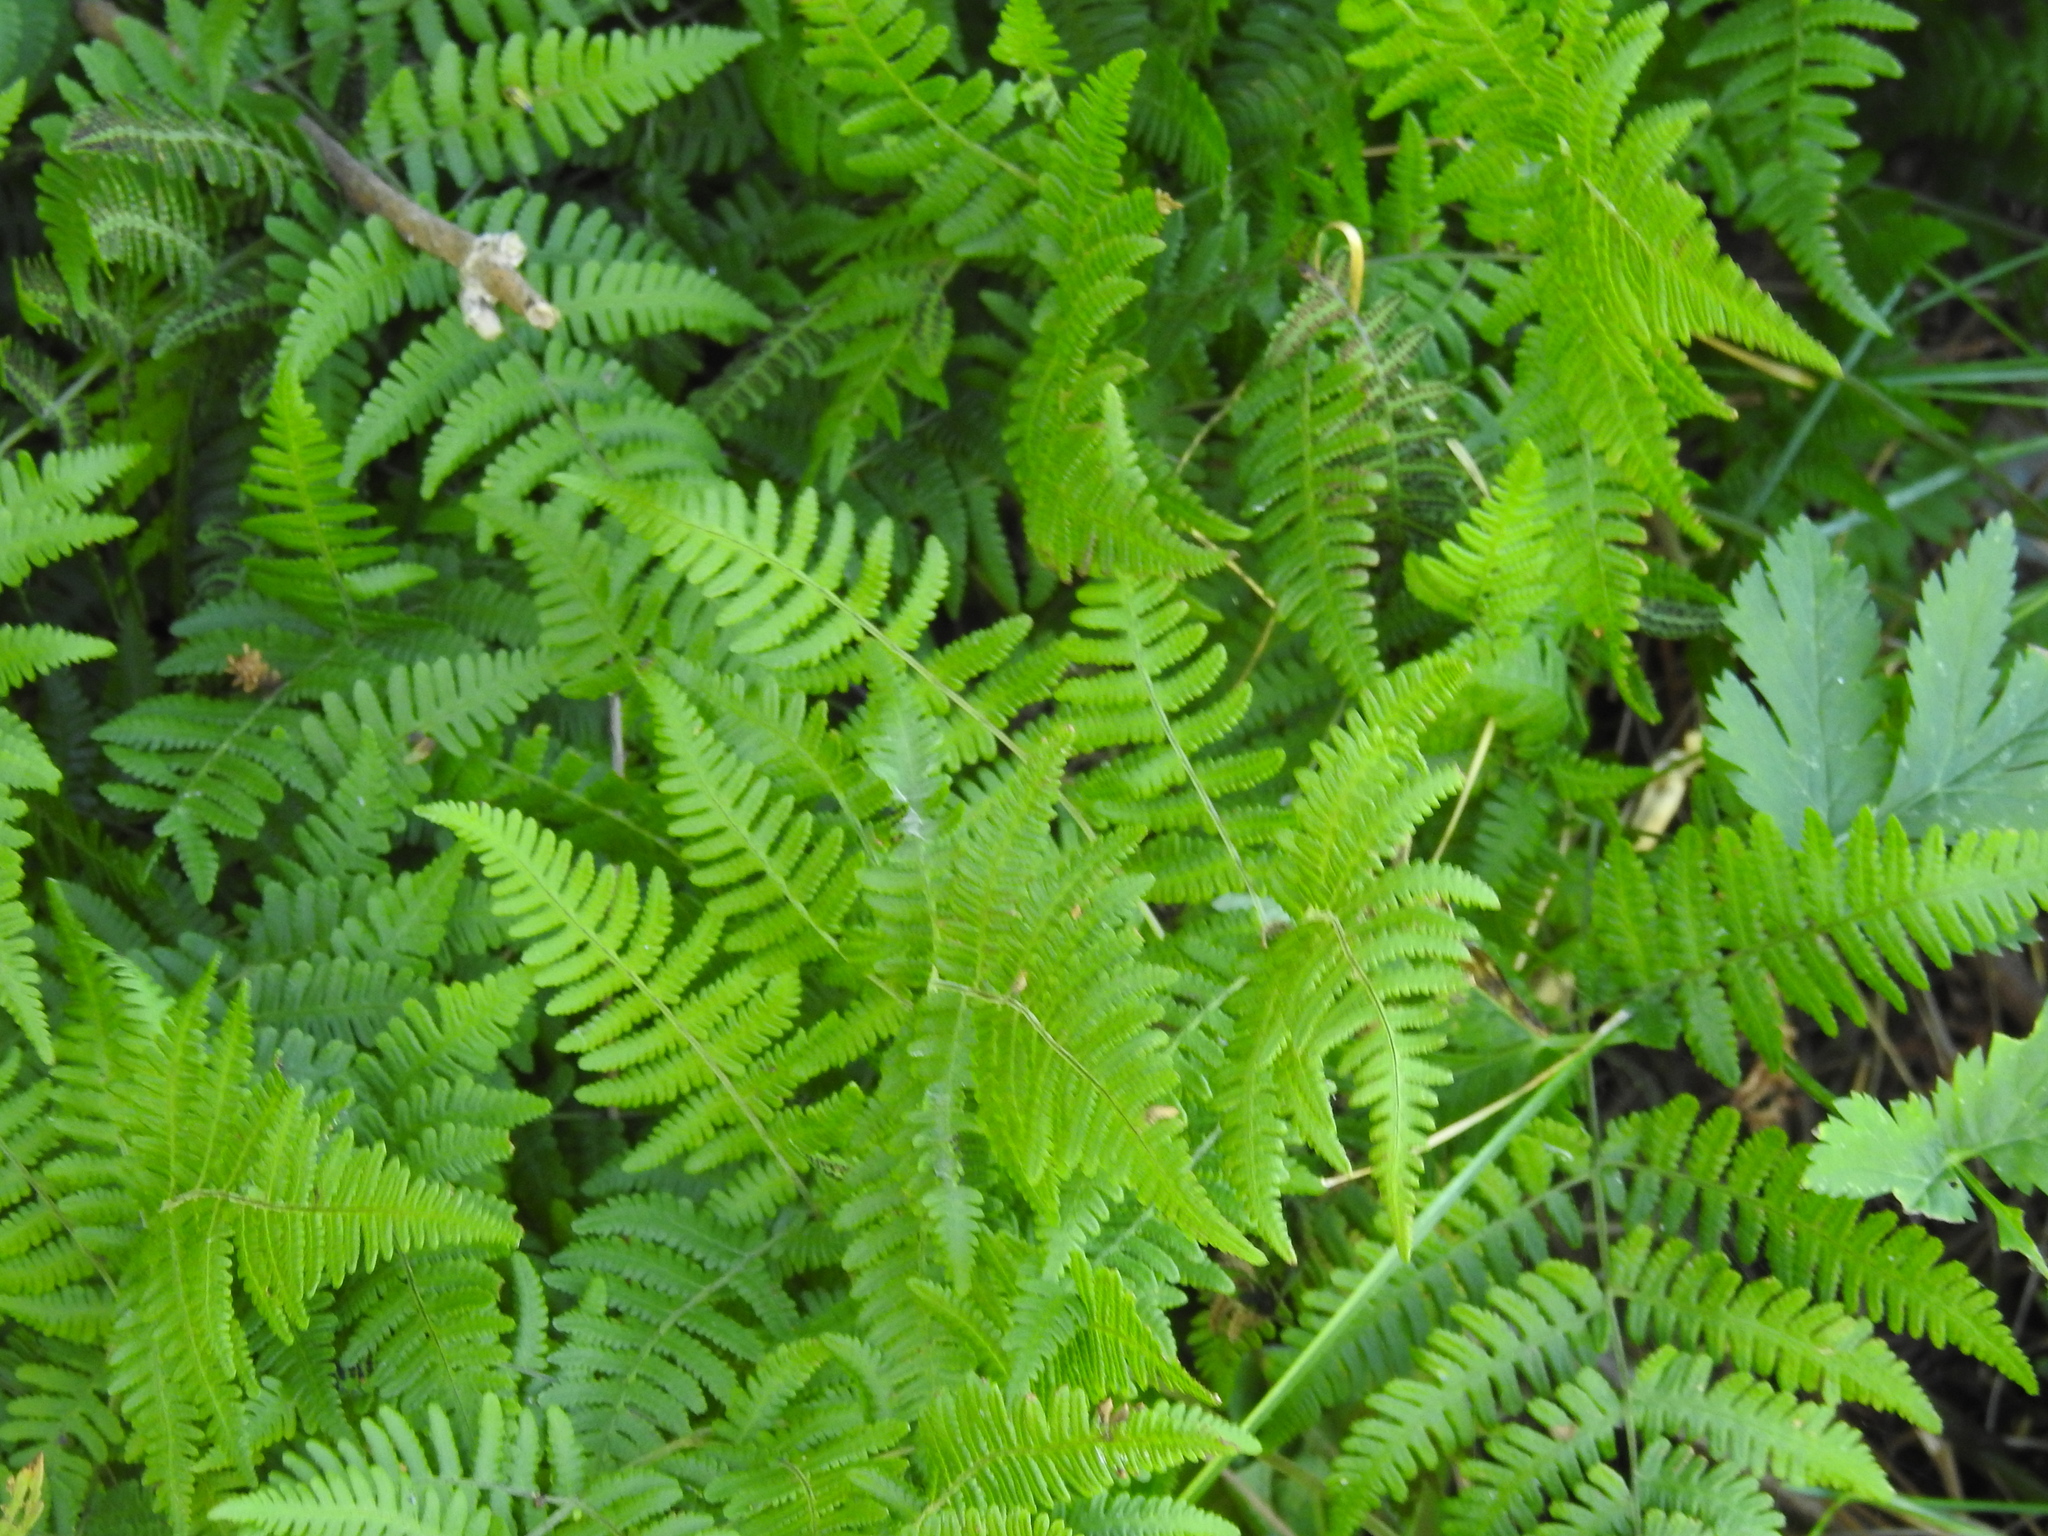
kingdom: Plantae
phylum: Tracheophyta
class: Polypodiopsida
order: Polypodiales
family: Cystopteridaceae
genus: Gymnocarpium
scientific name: Gymnocarpium robertianum
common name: Limestone fern
